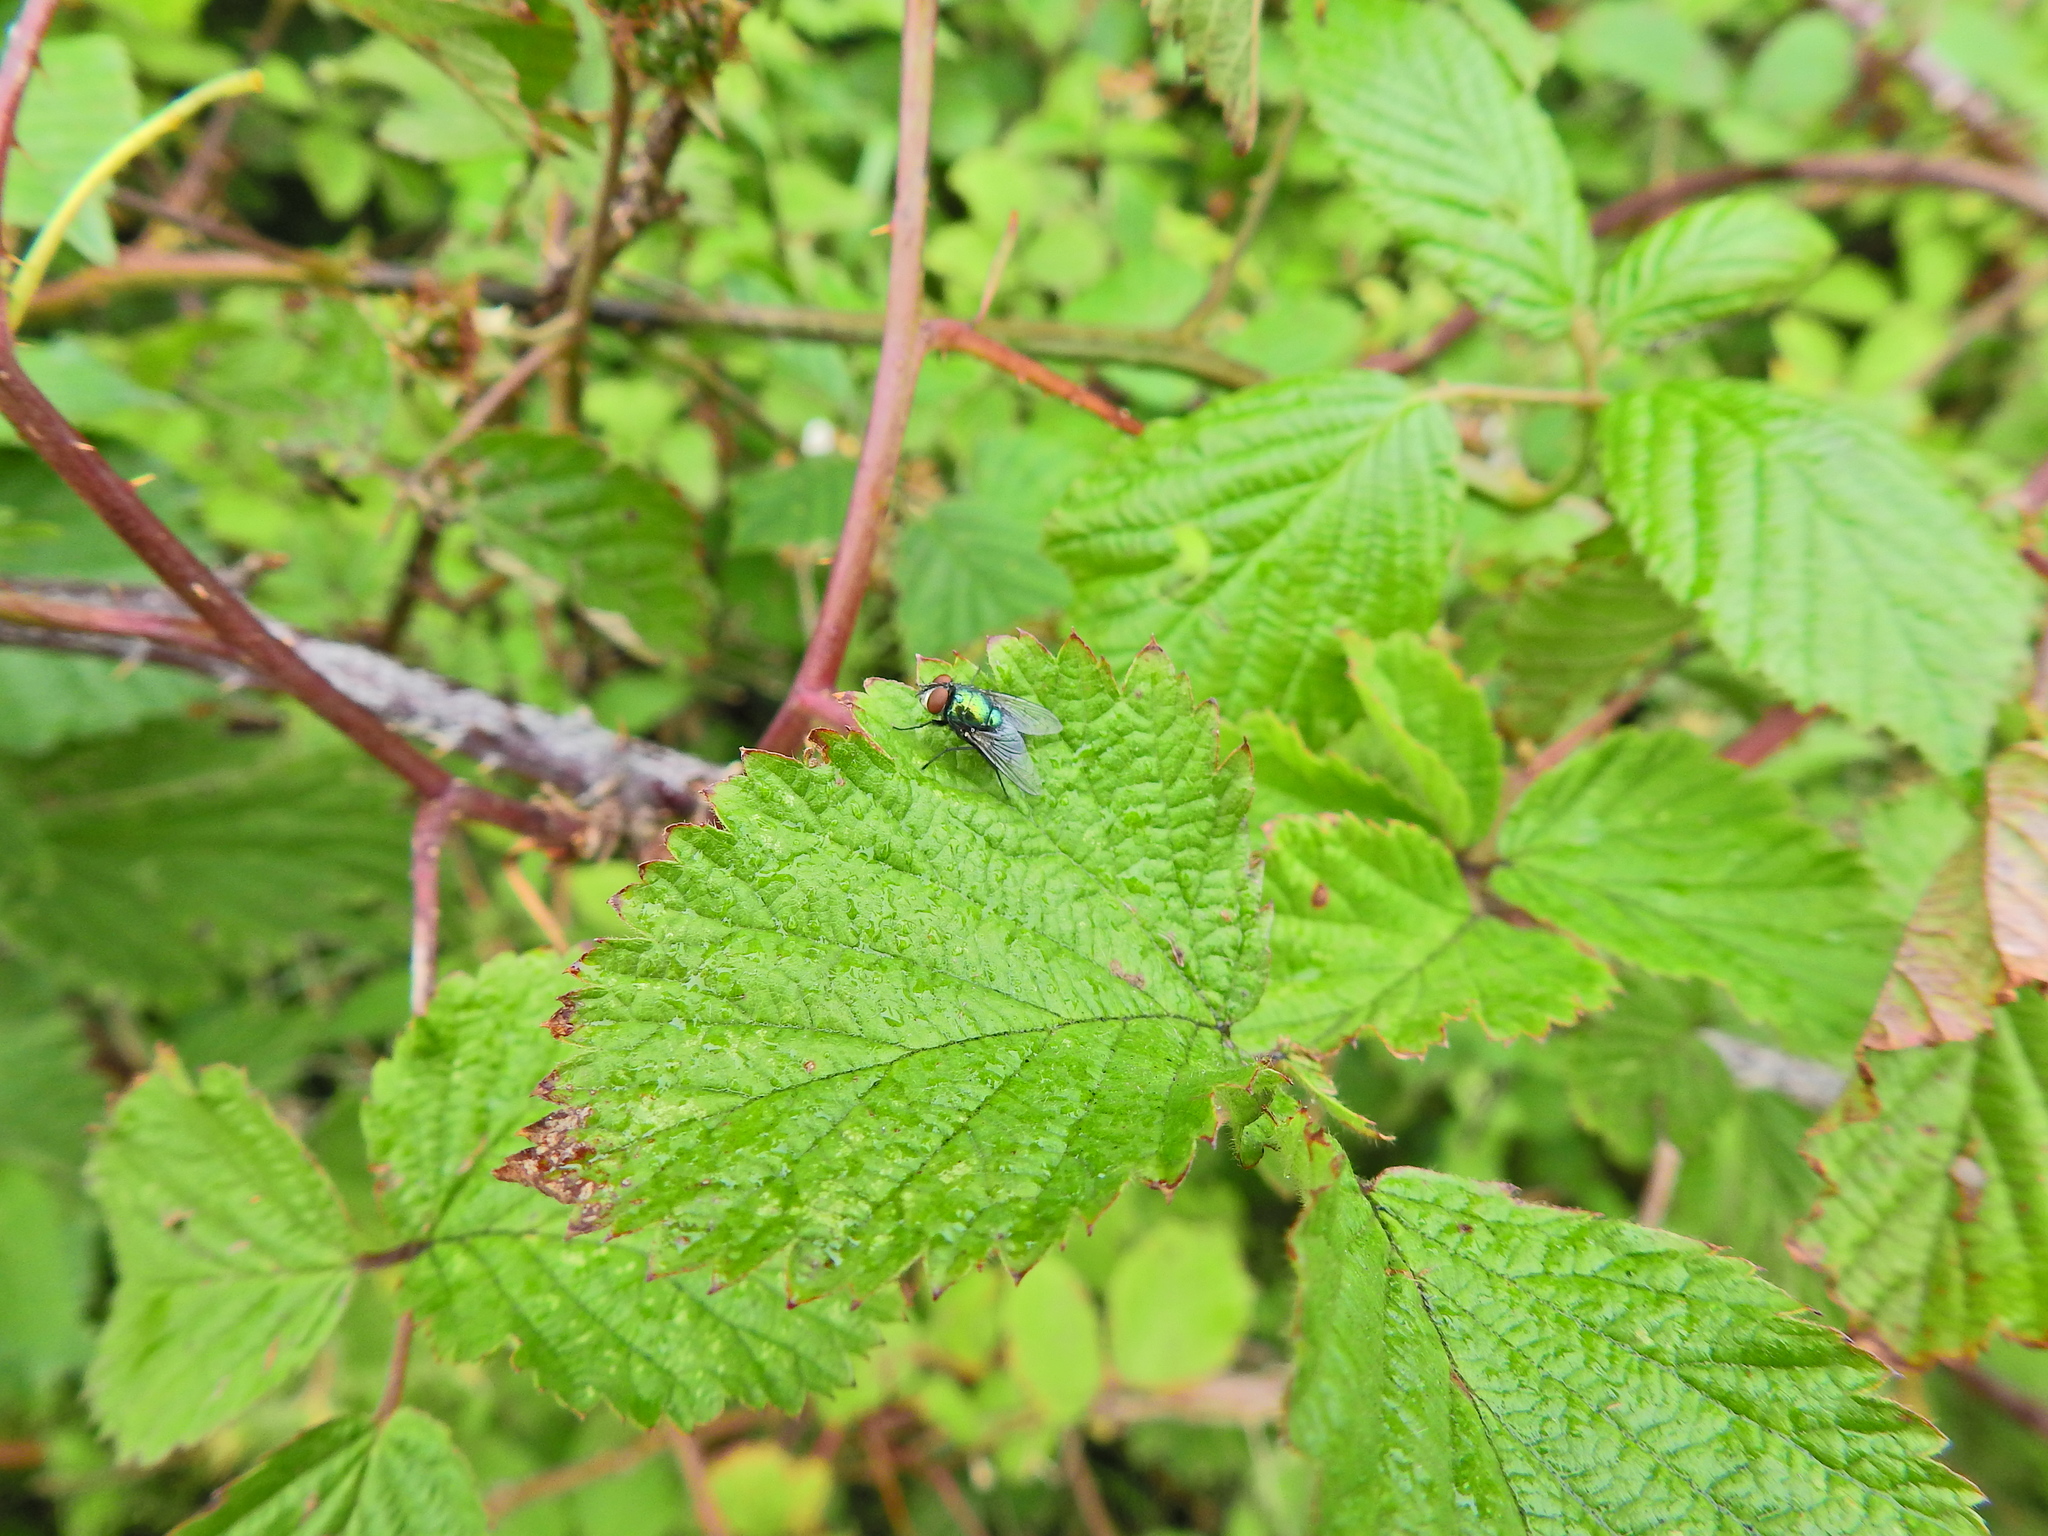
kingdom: Animalia
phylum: Arthropoda
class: Insecta
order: Diptera
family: Calliphoridae
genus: Lucilia
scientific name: Lucilia
